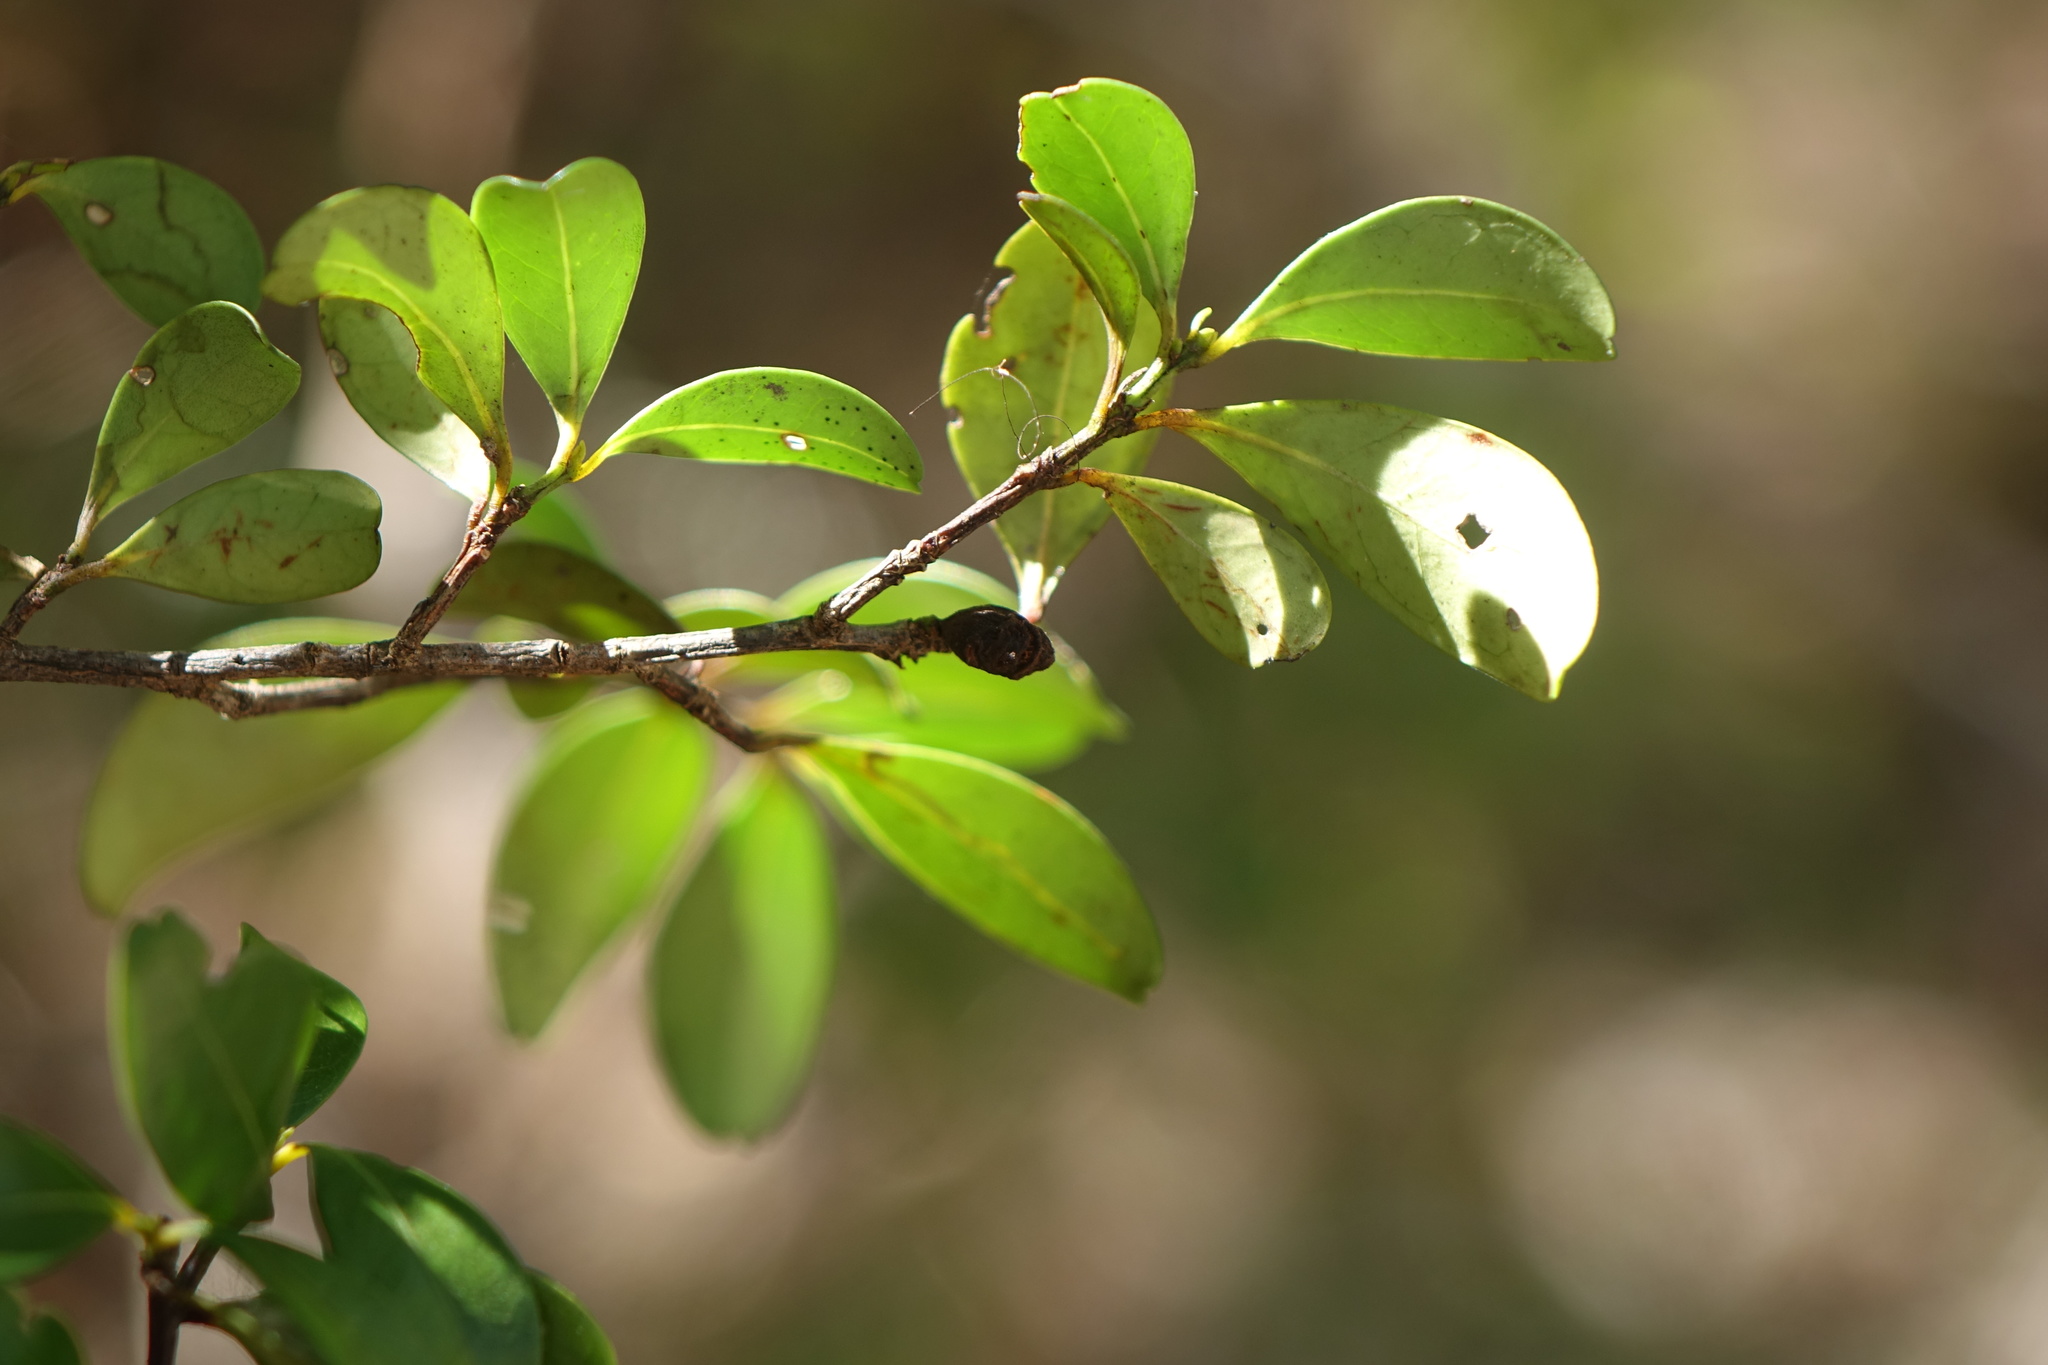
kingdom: Plantae
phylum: Tracheophyta
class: Magnoliopsida
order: Malpighiales
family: Clusiaceae
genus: Garcinia
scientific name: Garcinia arenicola
